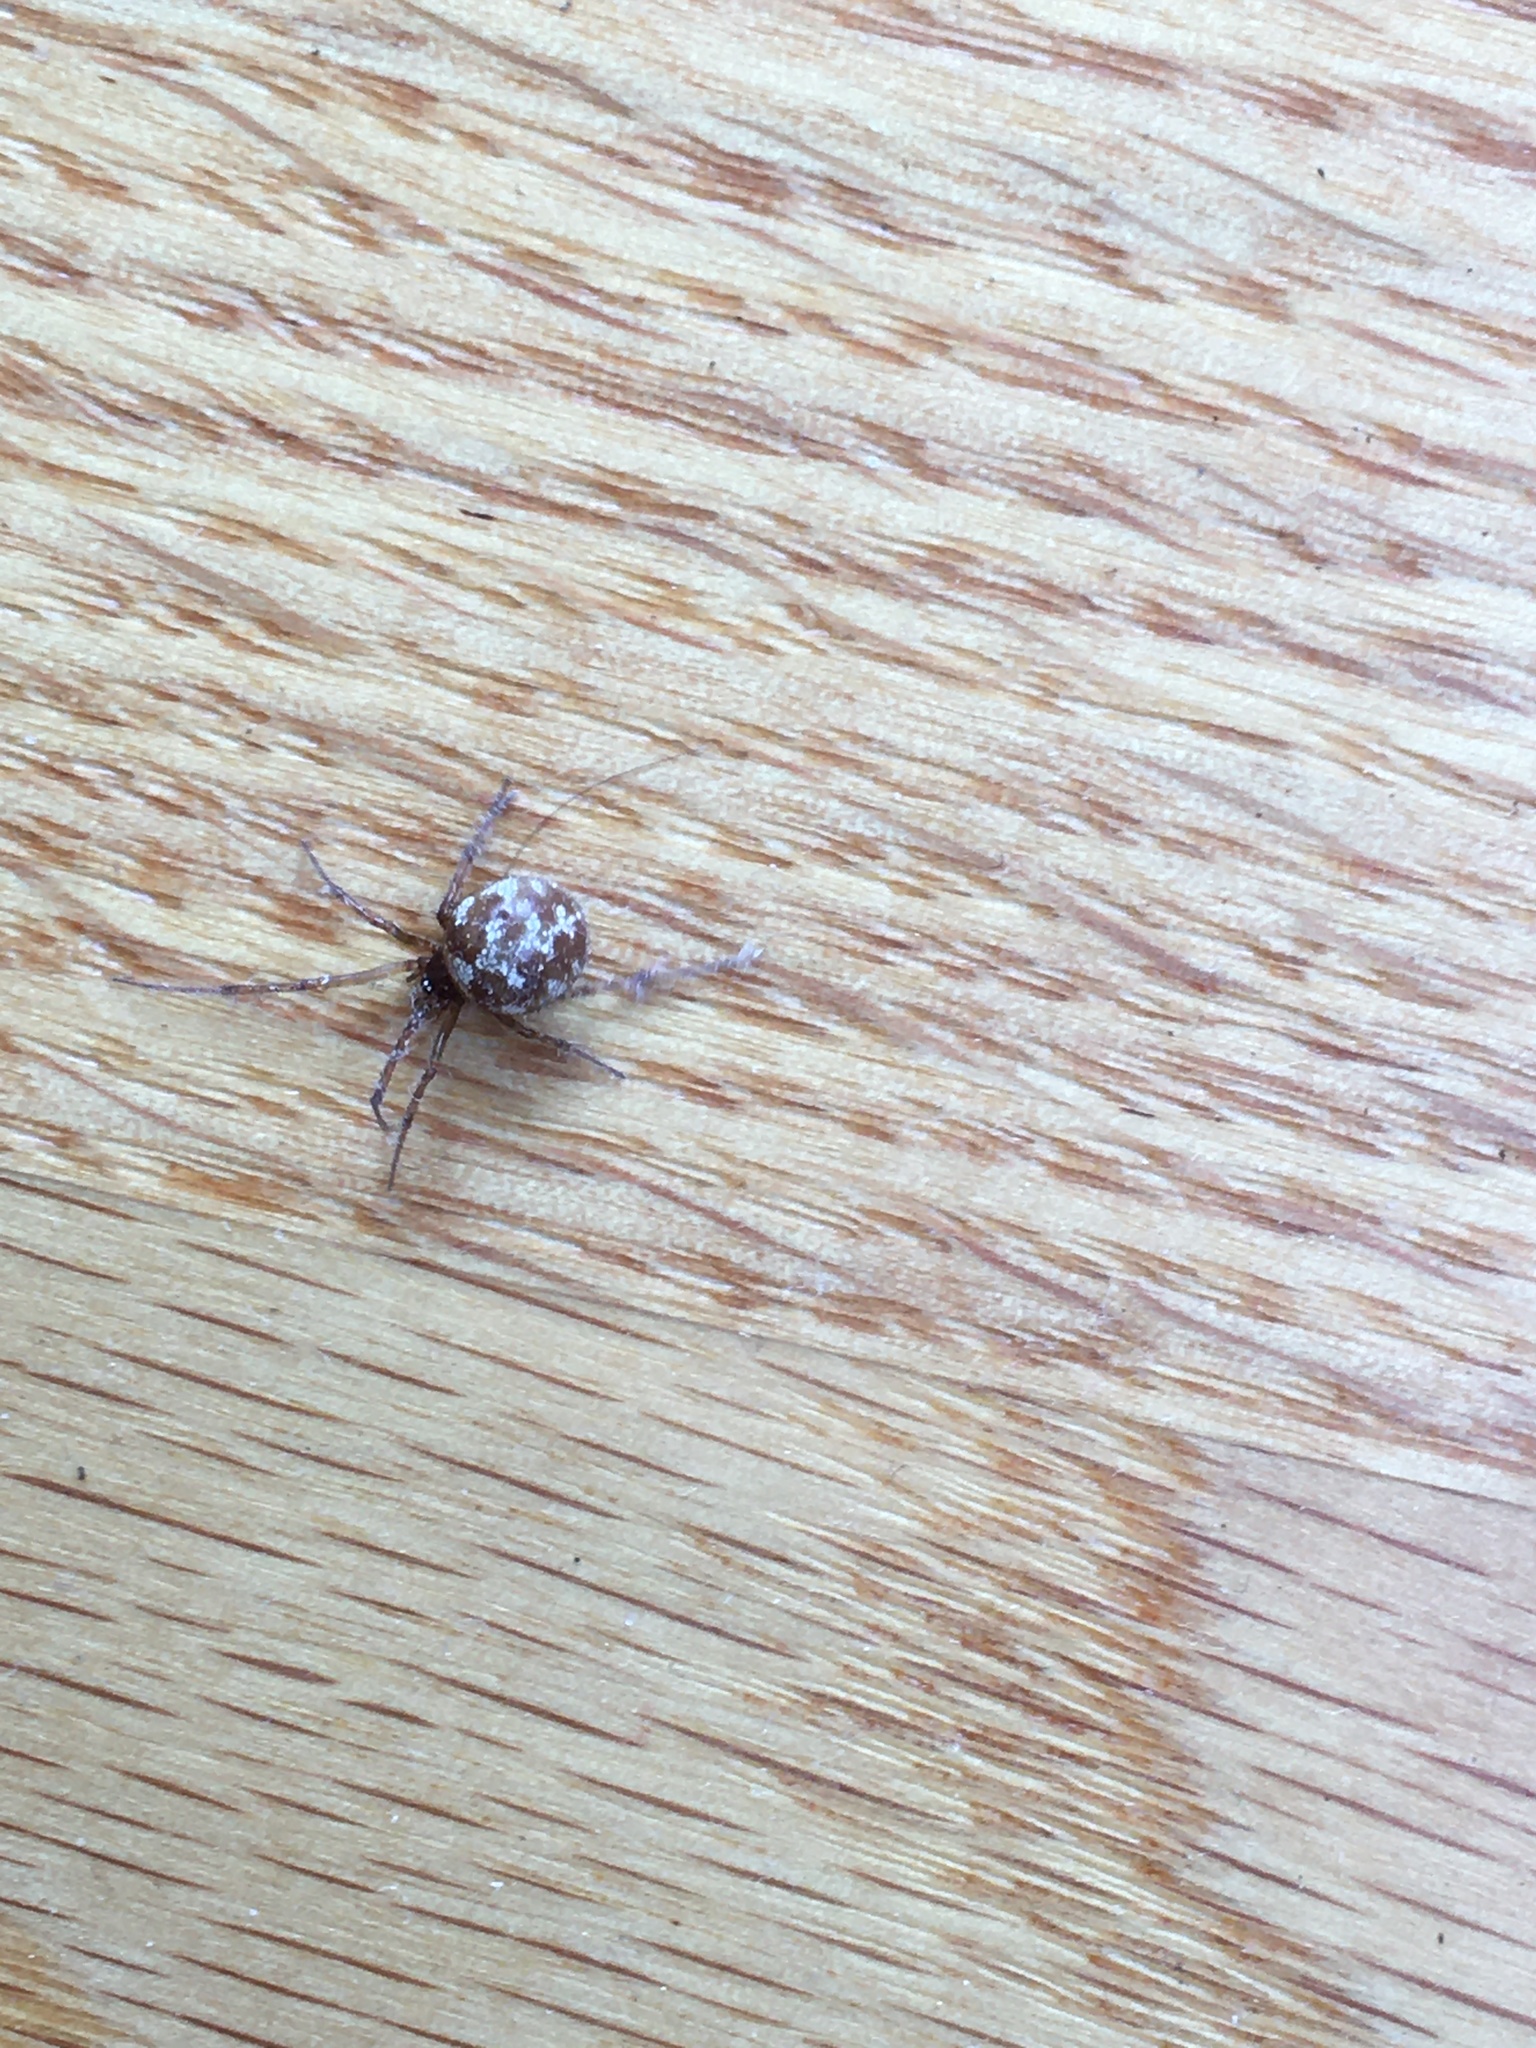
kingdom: Animalia
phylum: Arthropoda
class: Arachnida
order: Araneae
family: Theridiidae
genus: Steatoda
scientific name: Steatoda triangulosa
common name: Triangulate bud spider
